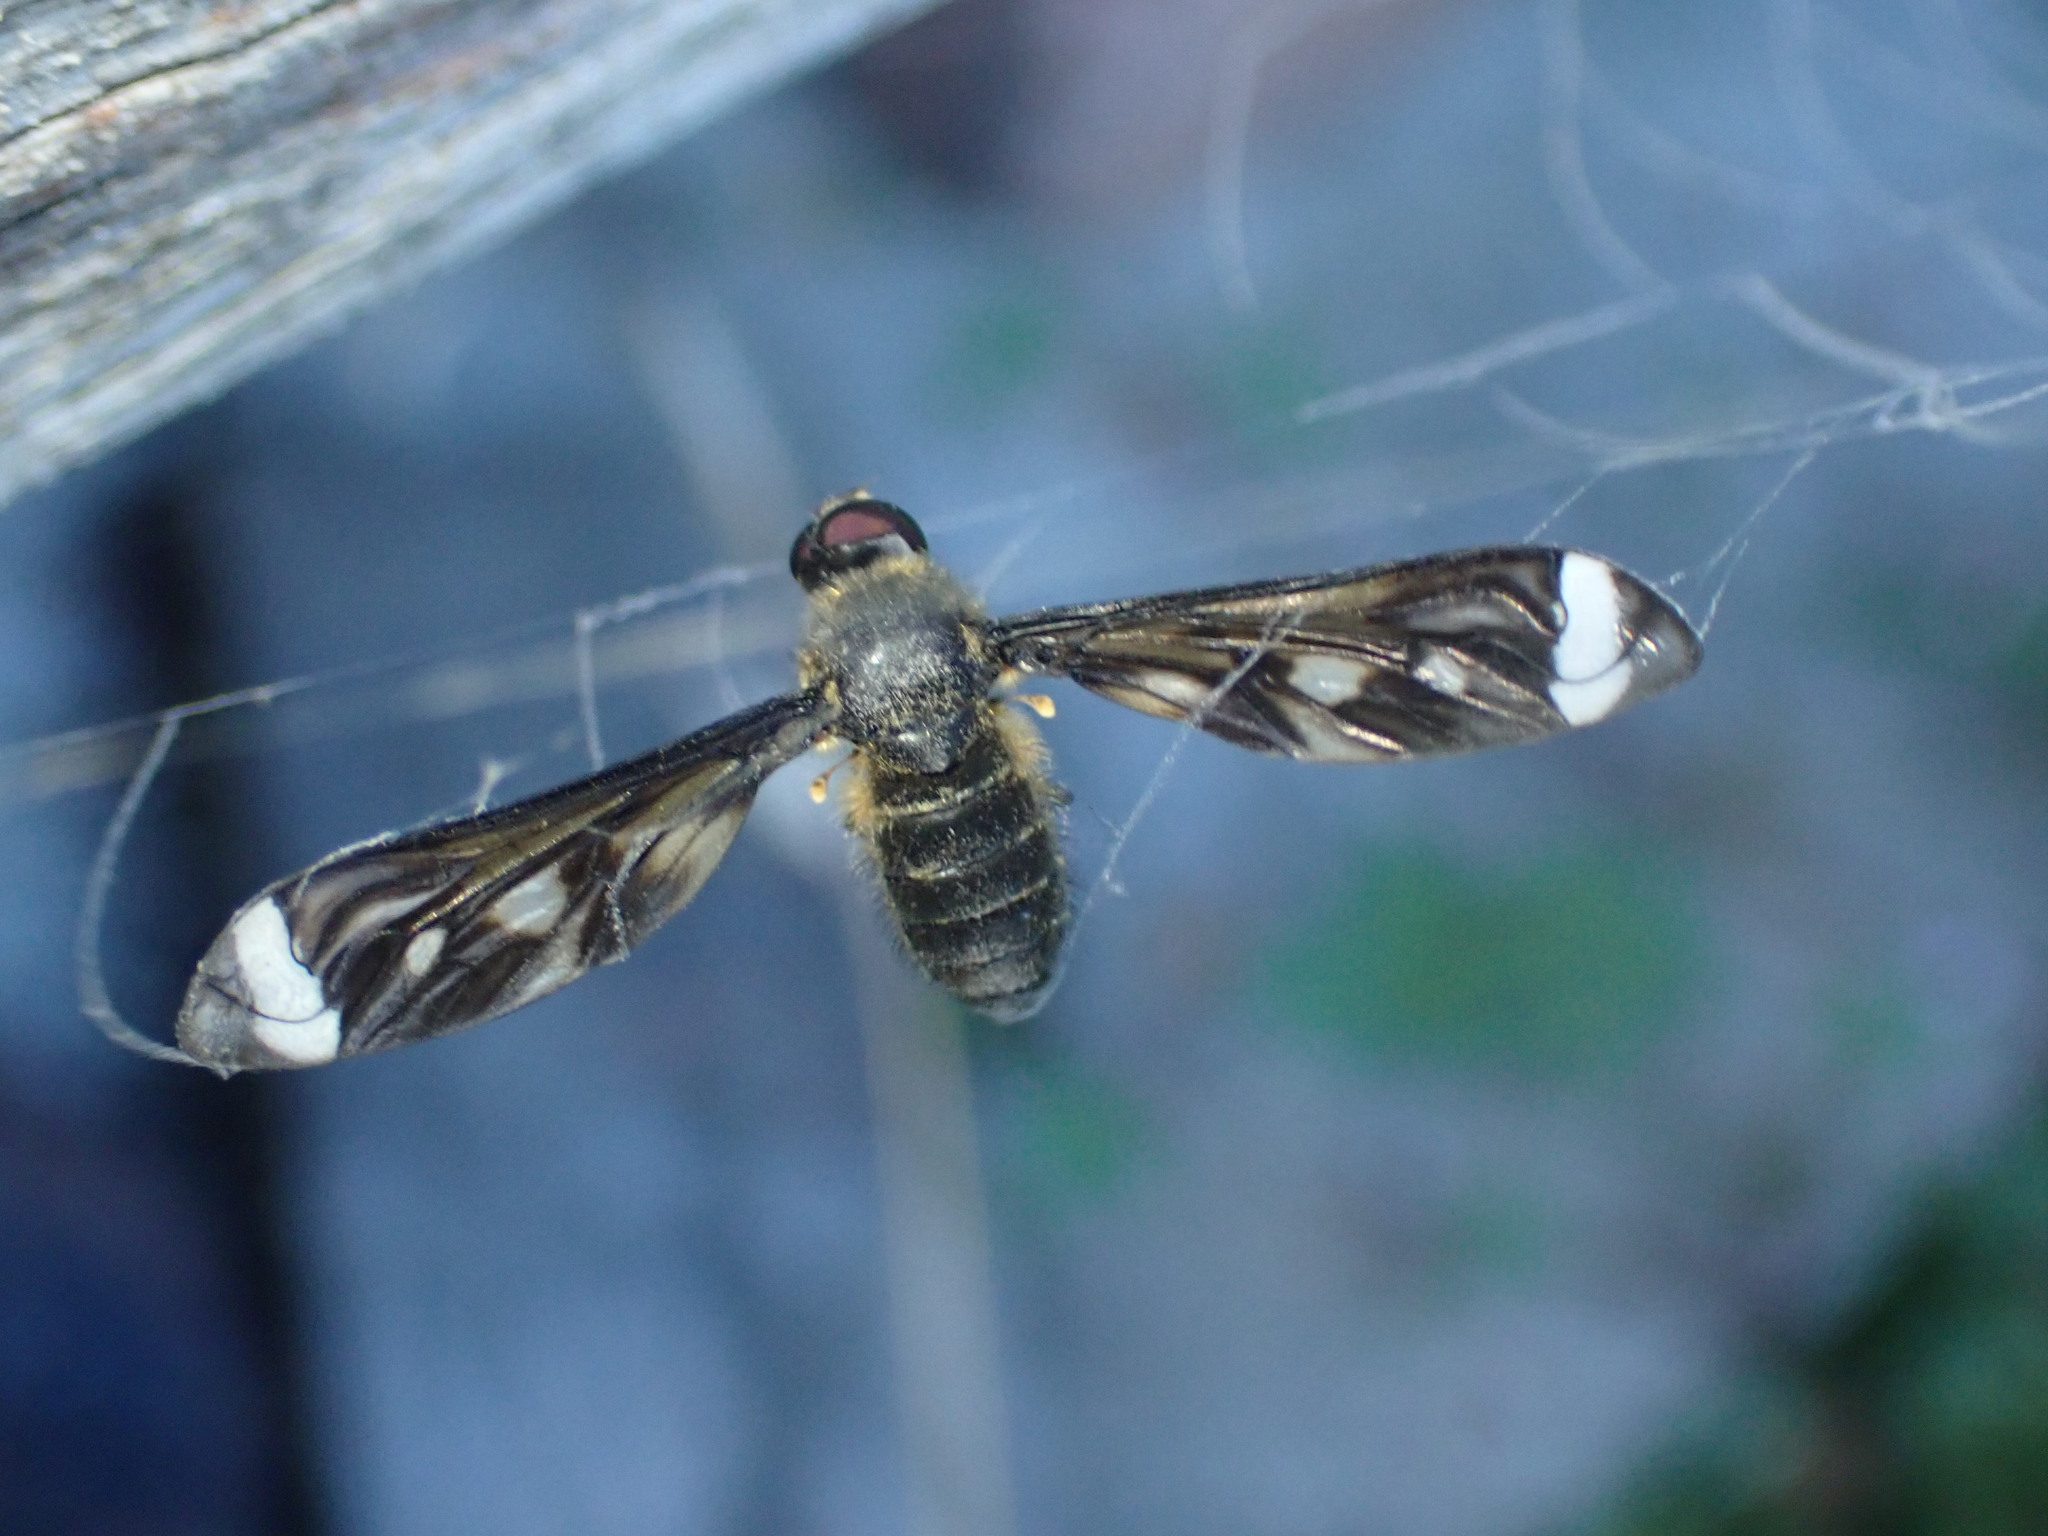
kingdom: Animalia
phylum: Arthropoda
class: Insecta
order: Diptera
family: Bombyliidae
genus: Comptosia
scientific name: Comptosia ocellata
